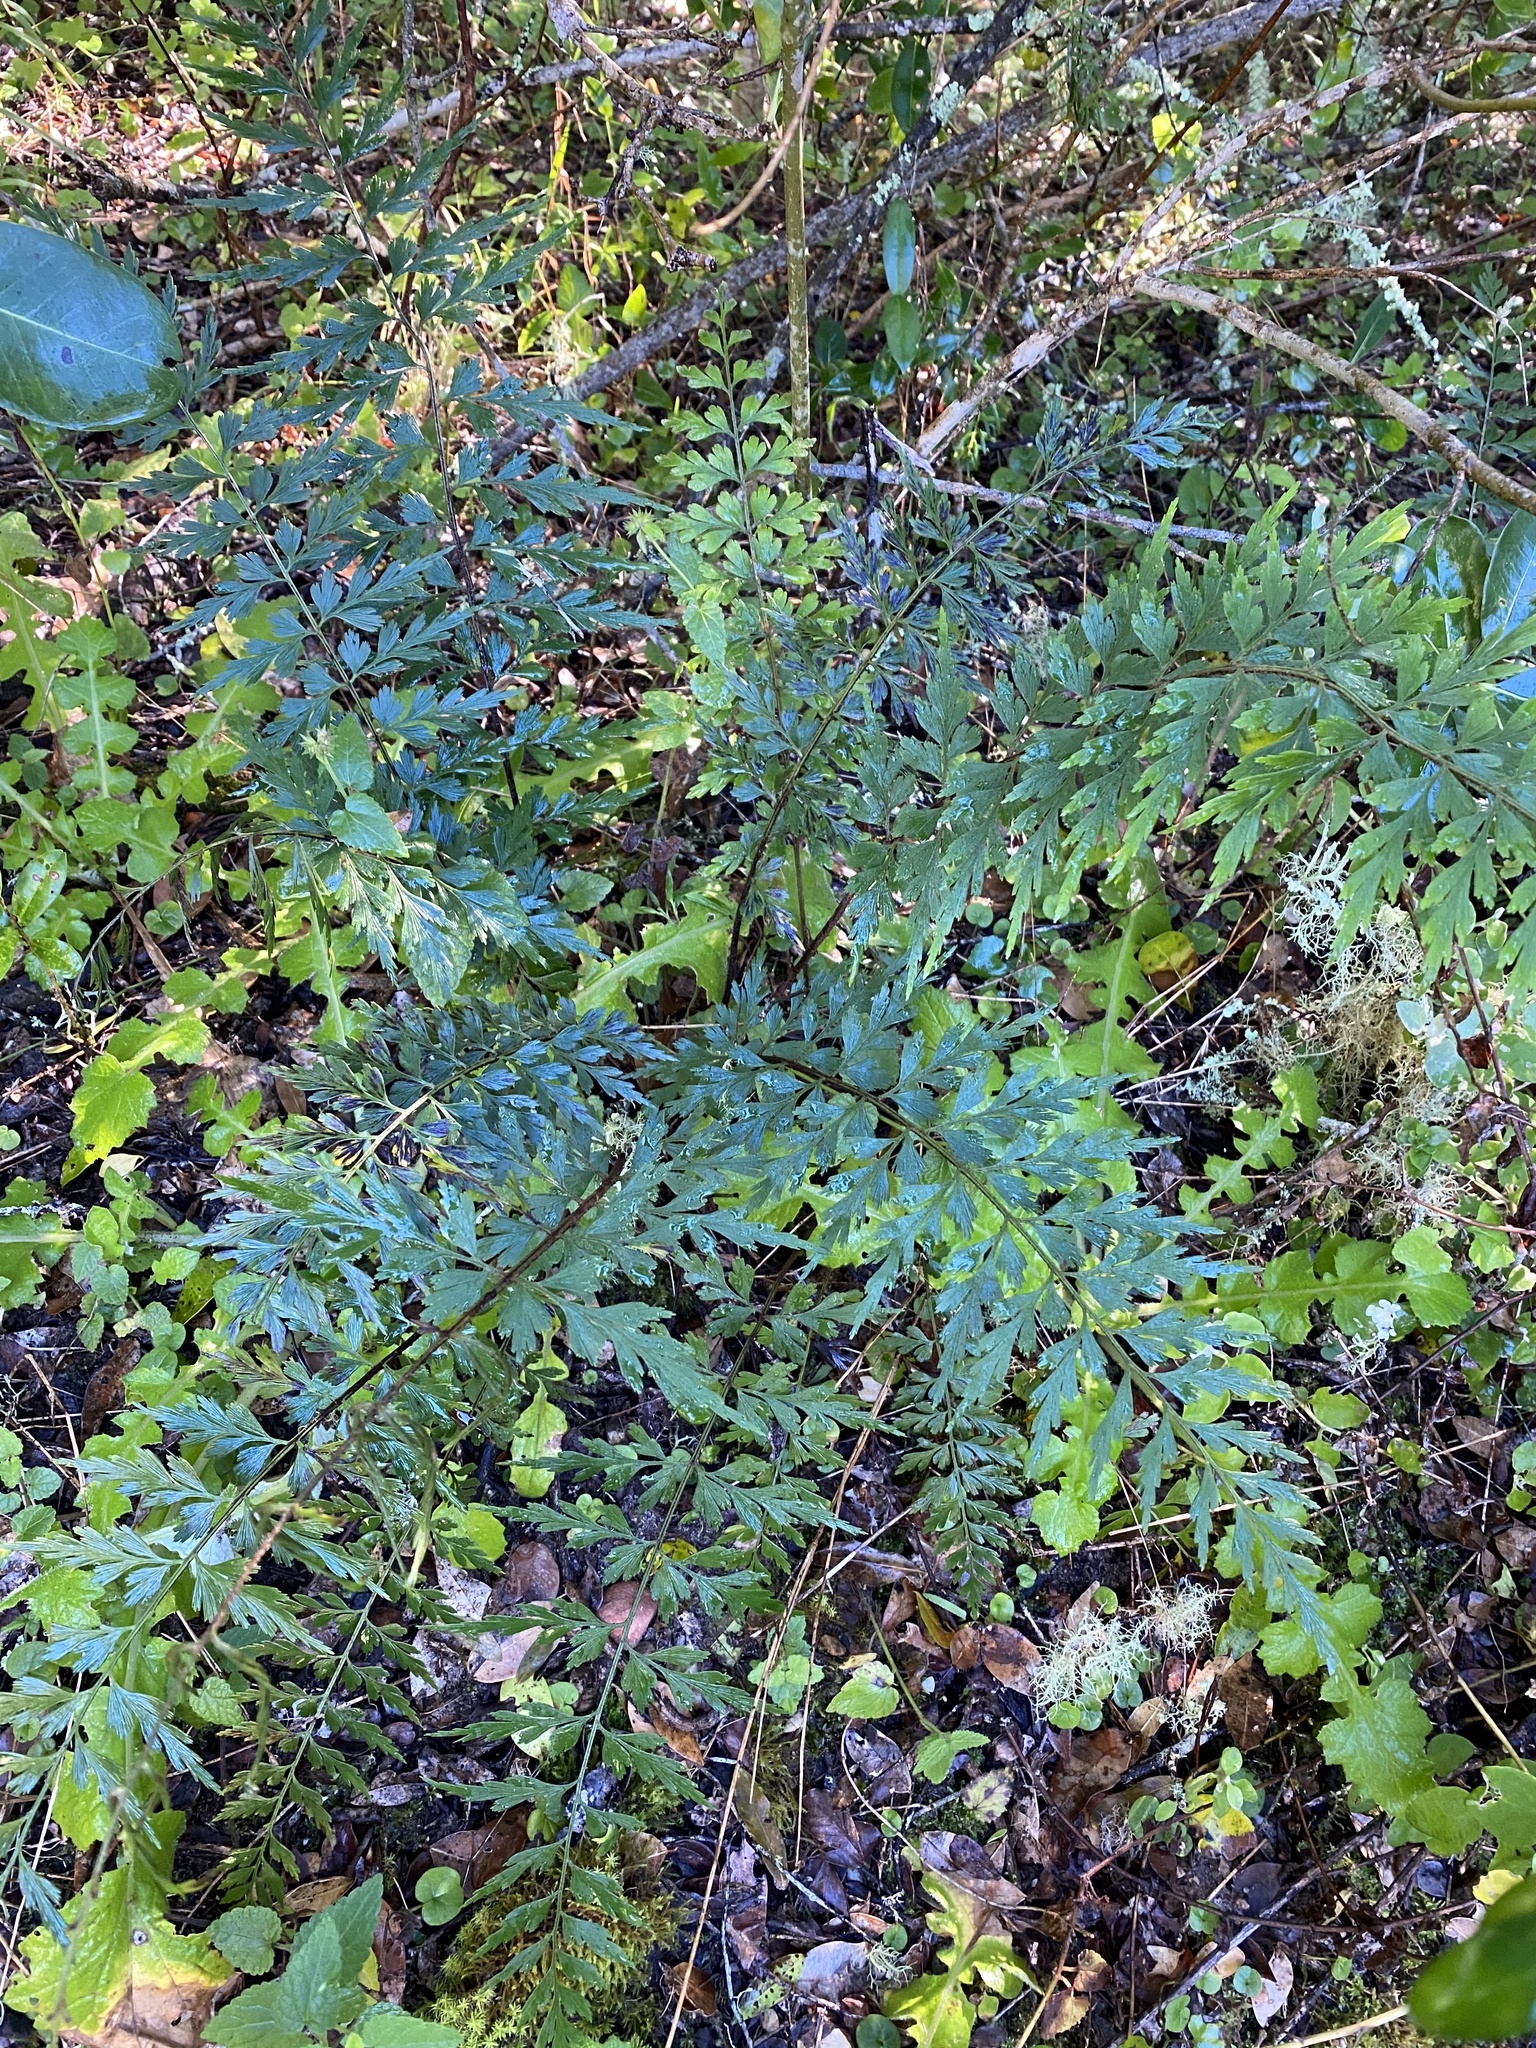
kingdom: Plantae
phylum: Tracheophyta
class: Polypodiopsida
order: Polypodiales
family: Aspleniaceae
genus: Asplenium
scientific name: Asplenium aethiopicum
